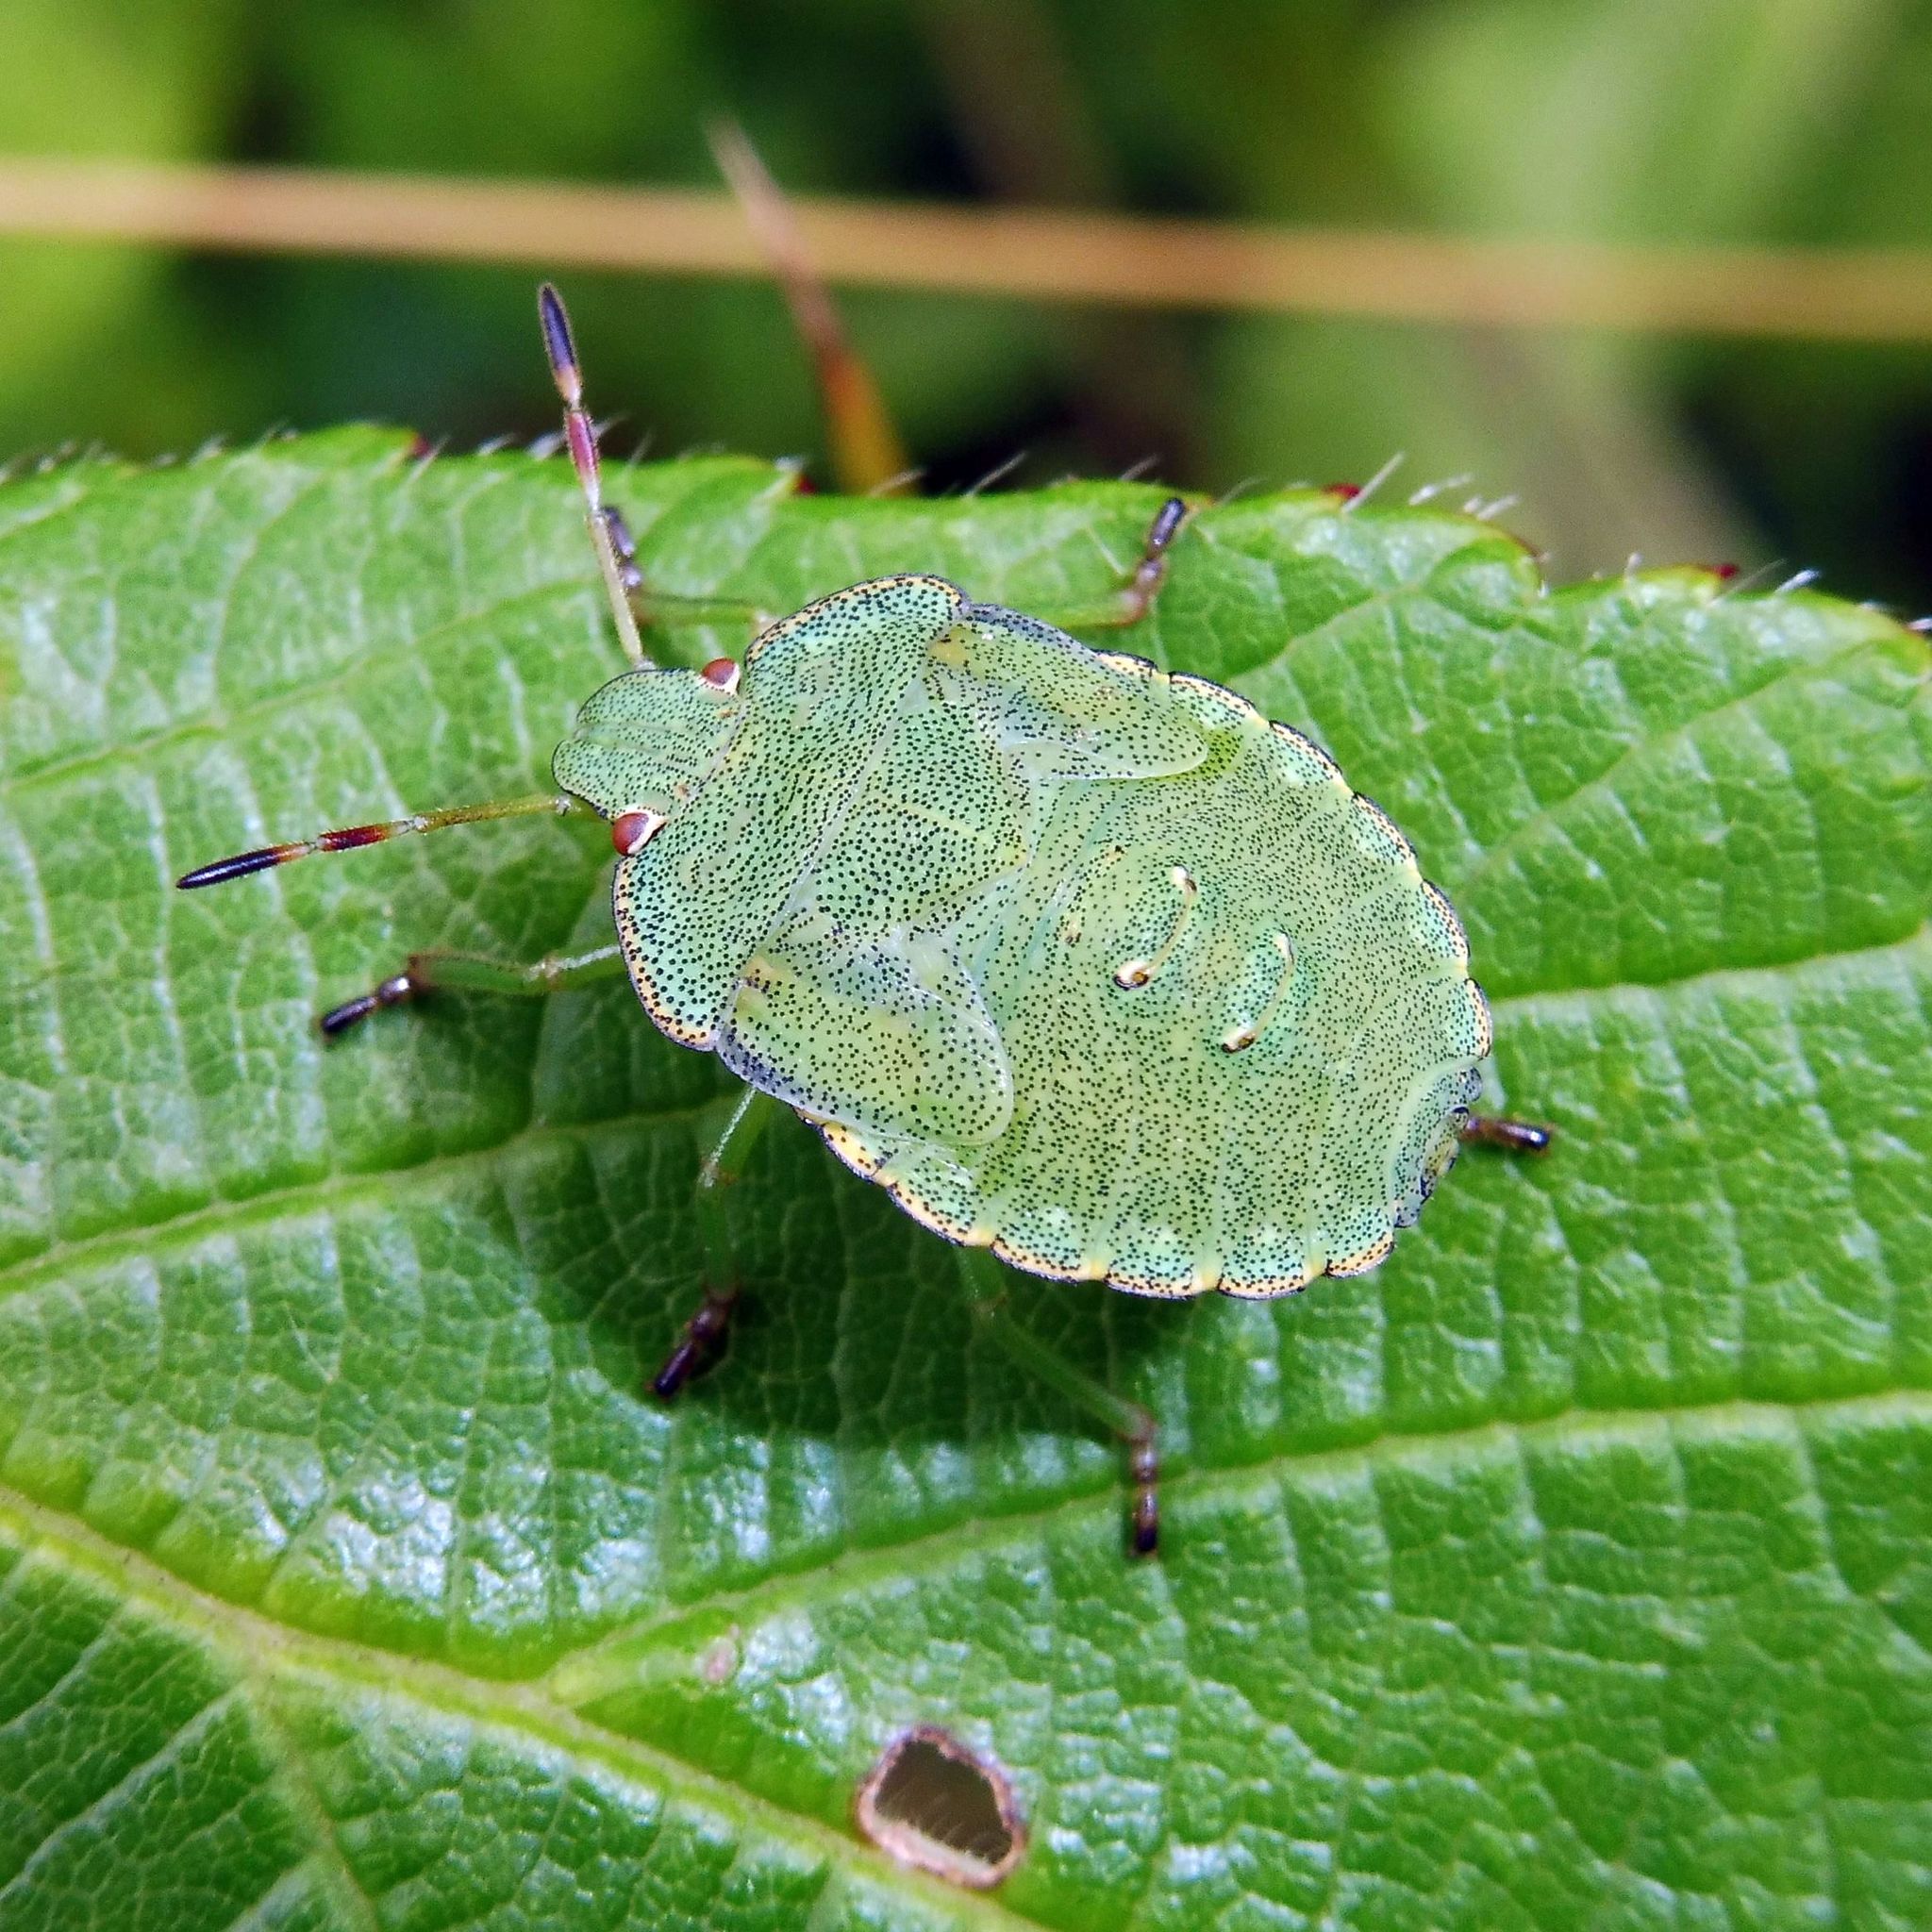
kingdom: Animalia
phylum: Arthropoda
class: Insecta
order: Hemiptera
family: Pentatomidae
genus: Palomena
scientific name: Palomena prasina
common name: Green shieldbug
